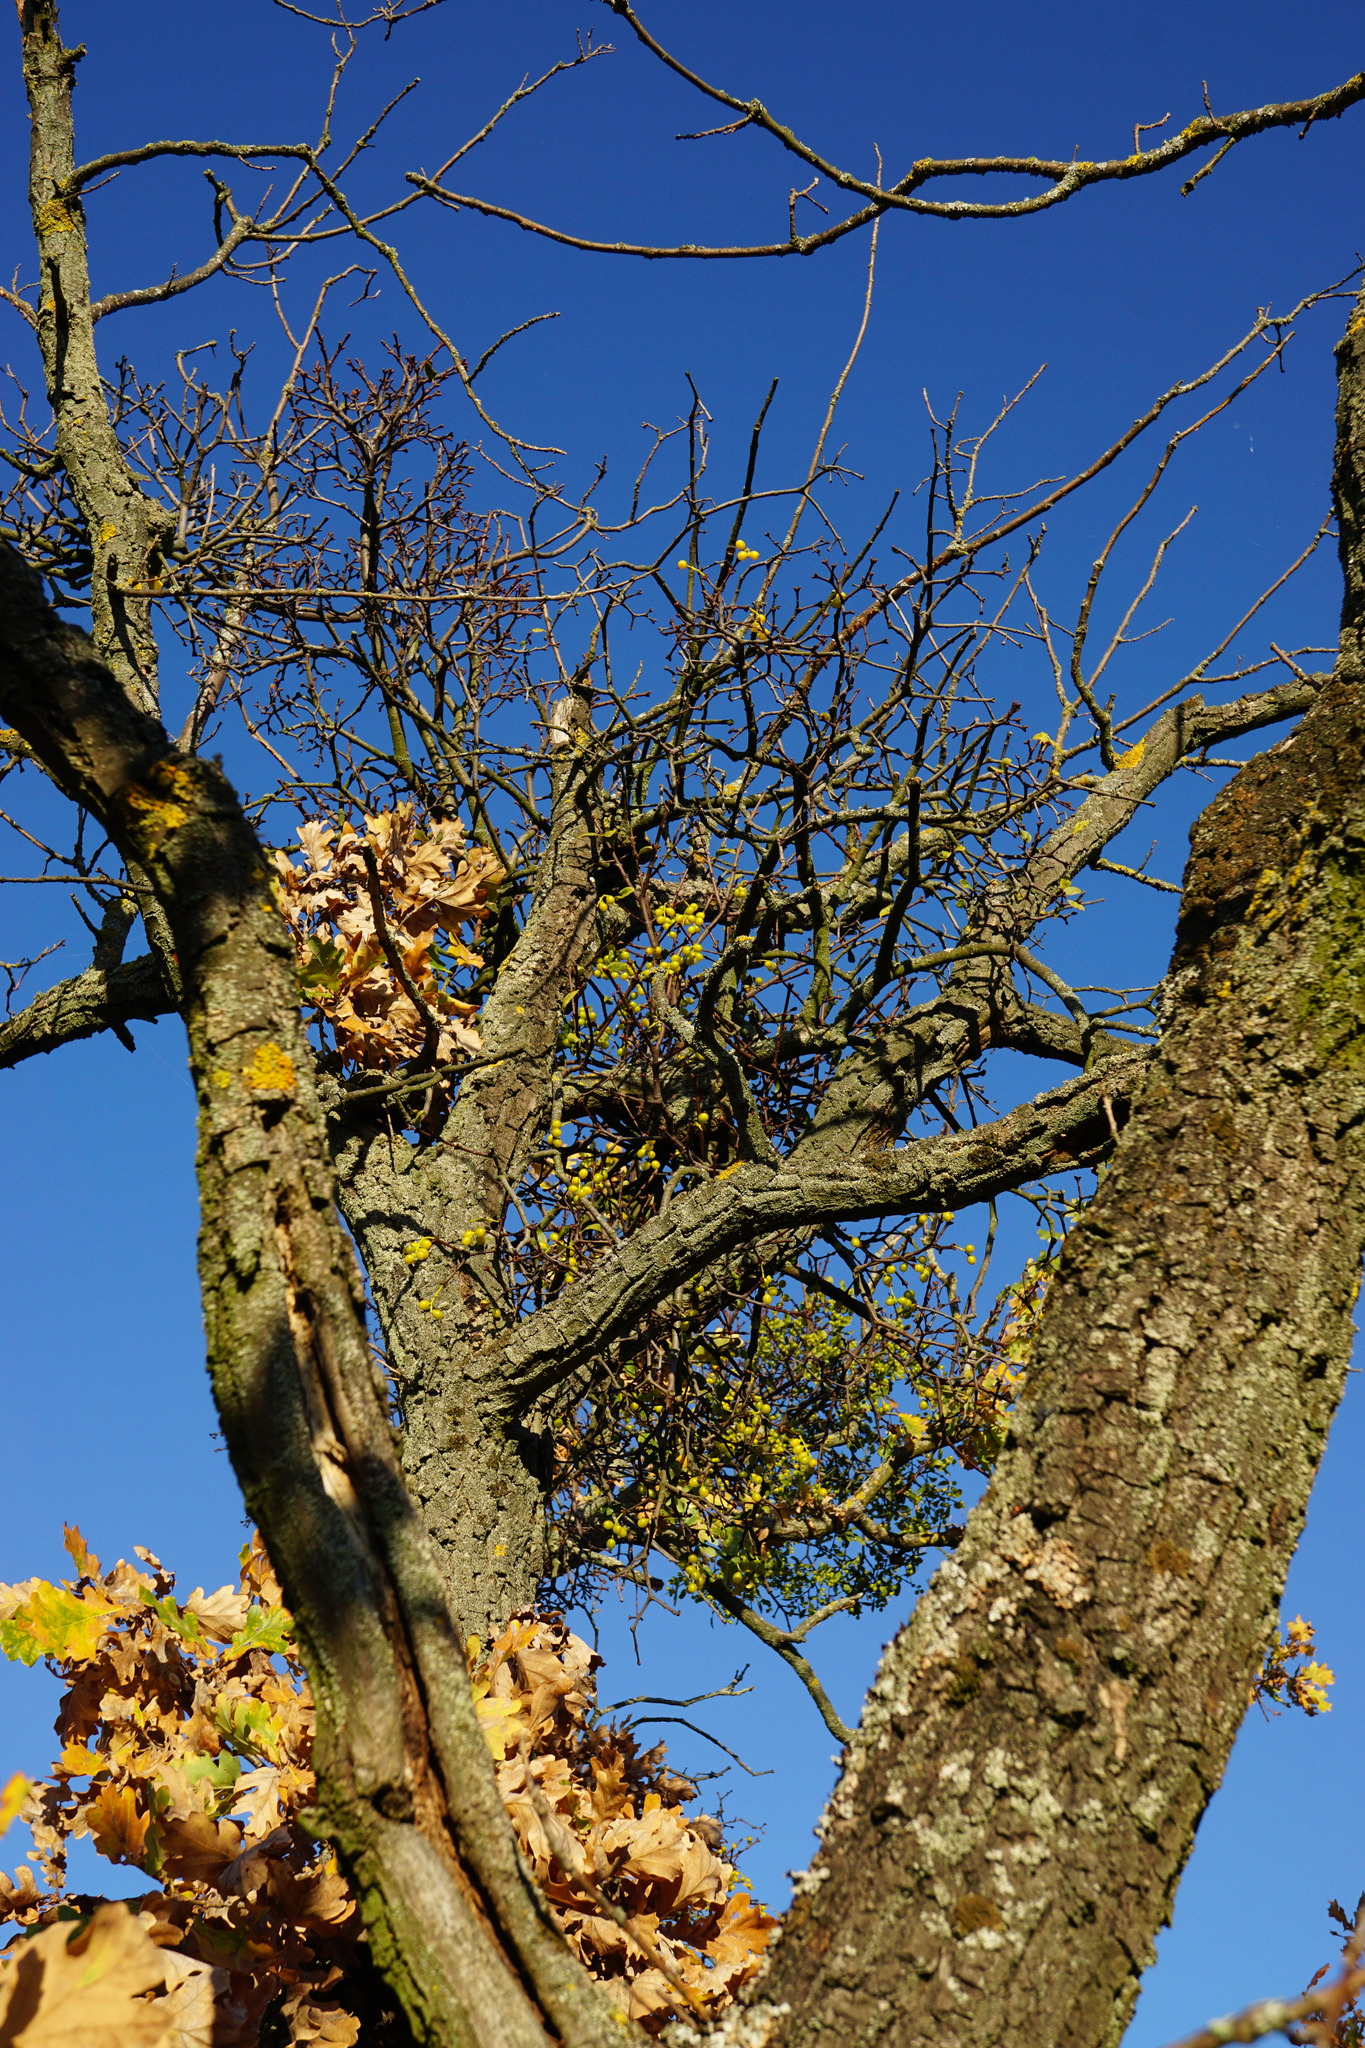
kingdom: Plantae
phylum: Tracheophyta
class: Magnoliopsida
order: Santalales
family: Loranthaceae
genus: Loranthus
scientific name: Loranthus europaeus
